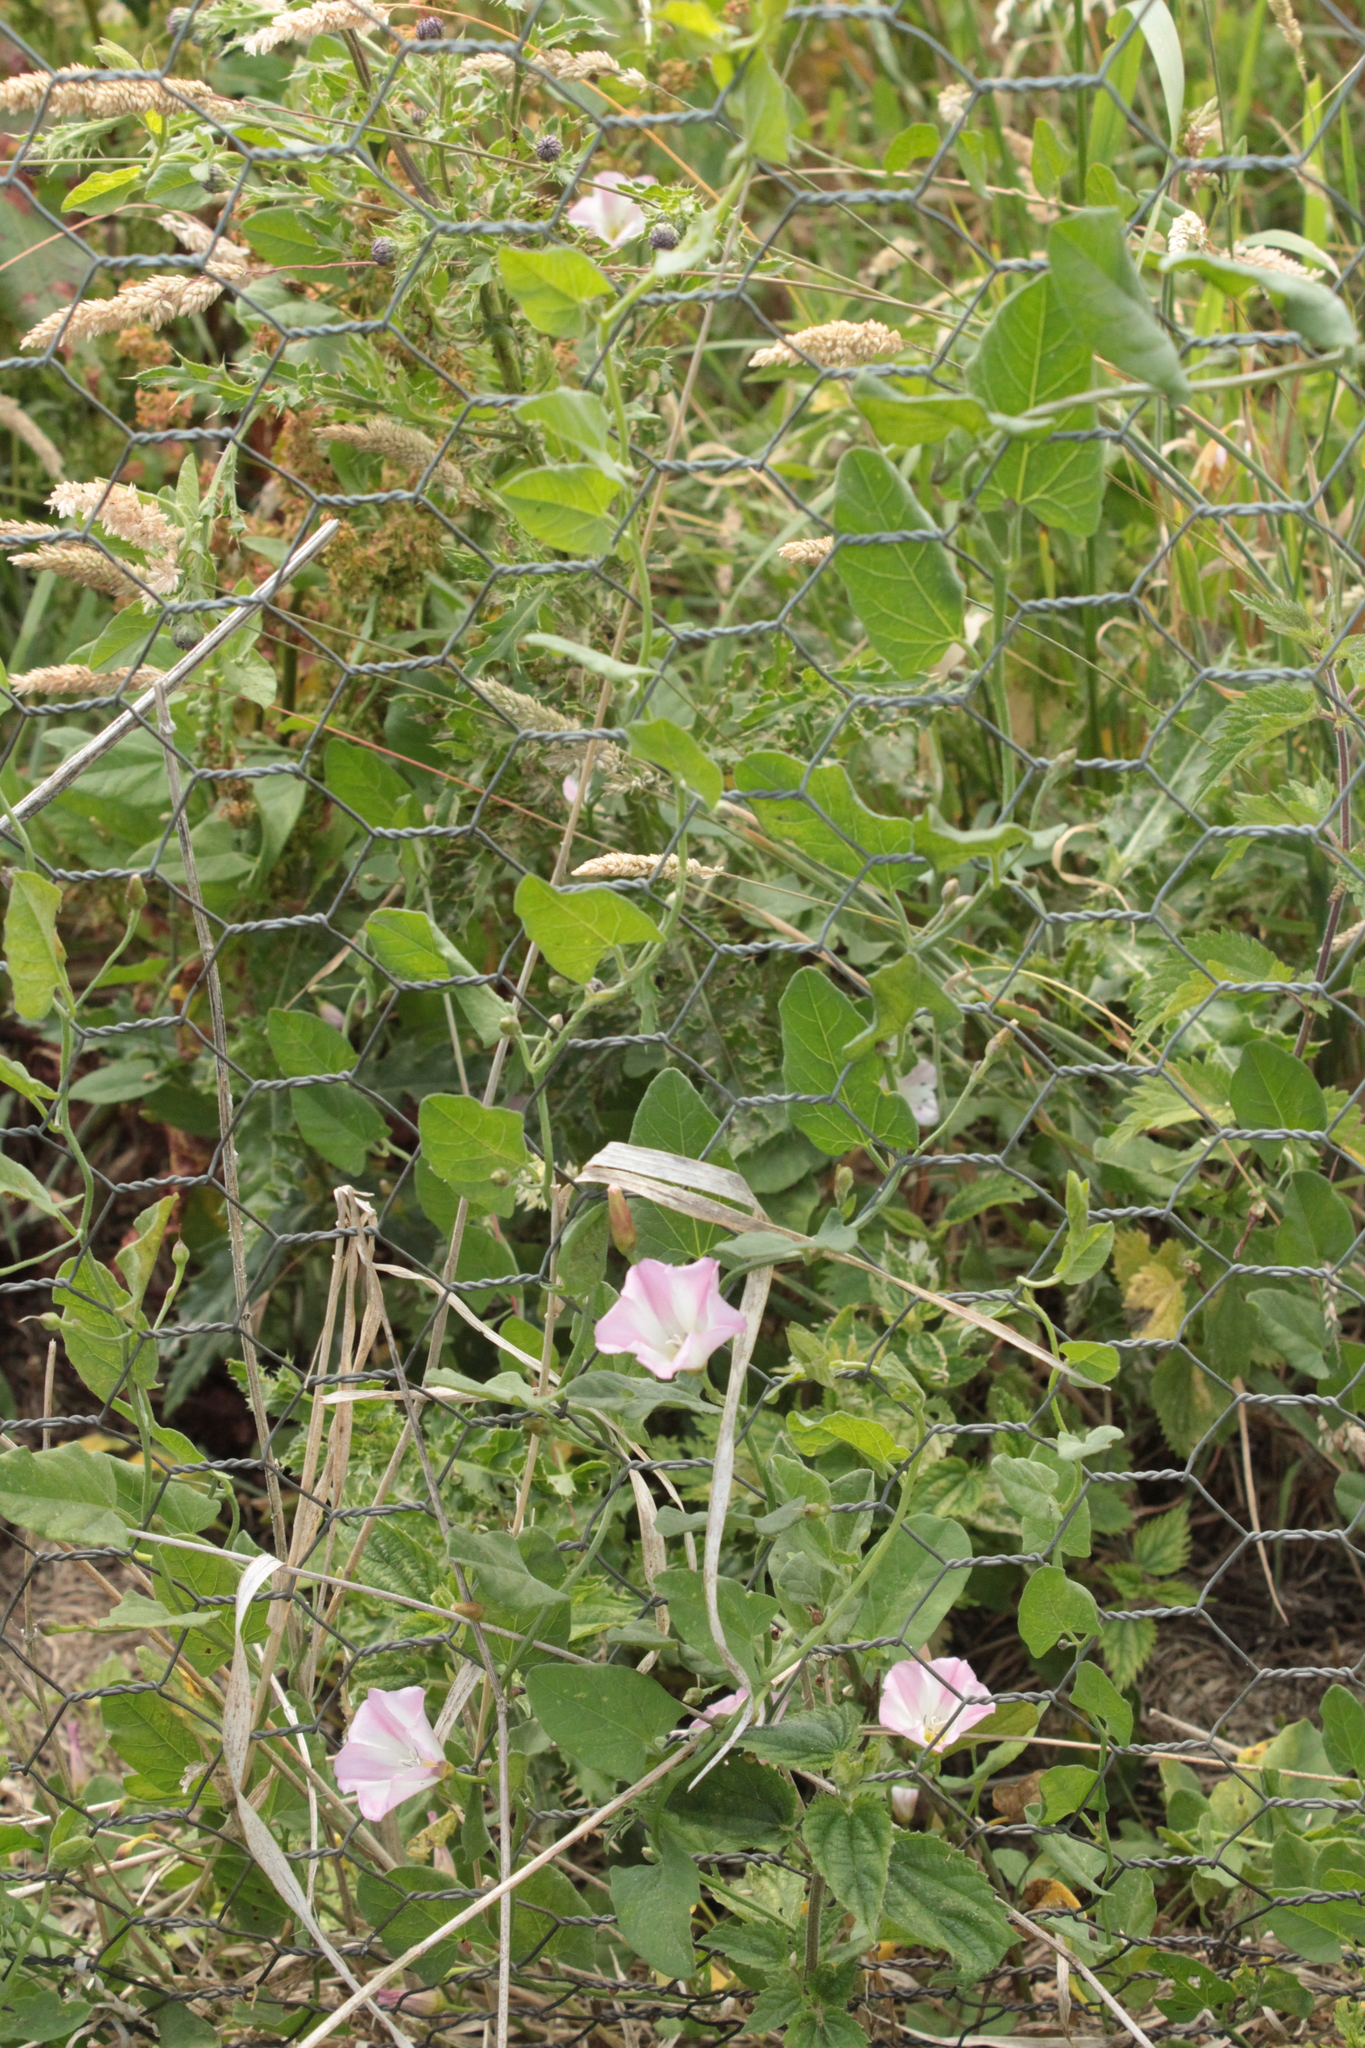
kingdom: Plantae
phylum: Tracheophyta
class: Magnoliopsida
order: Solanales
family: Convolvulaceae
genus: Convolvulus
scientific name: Convolvulus arvensis
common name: Field bindweed
